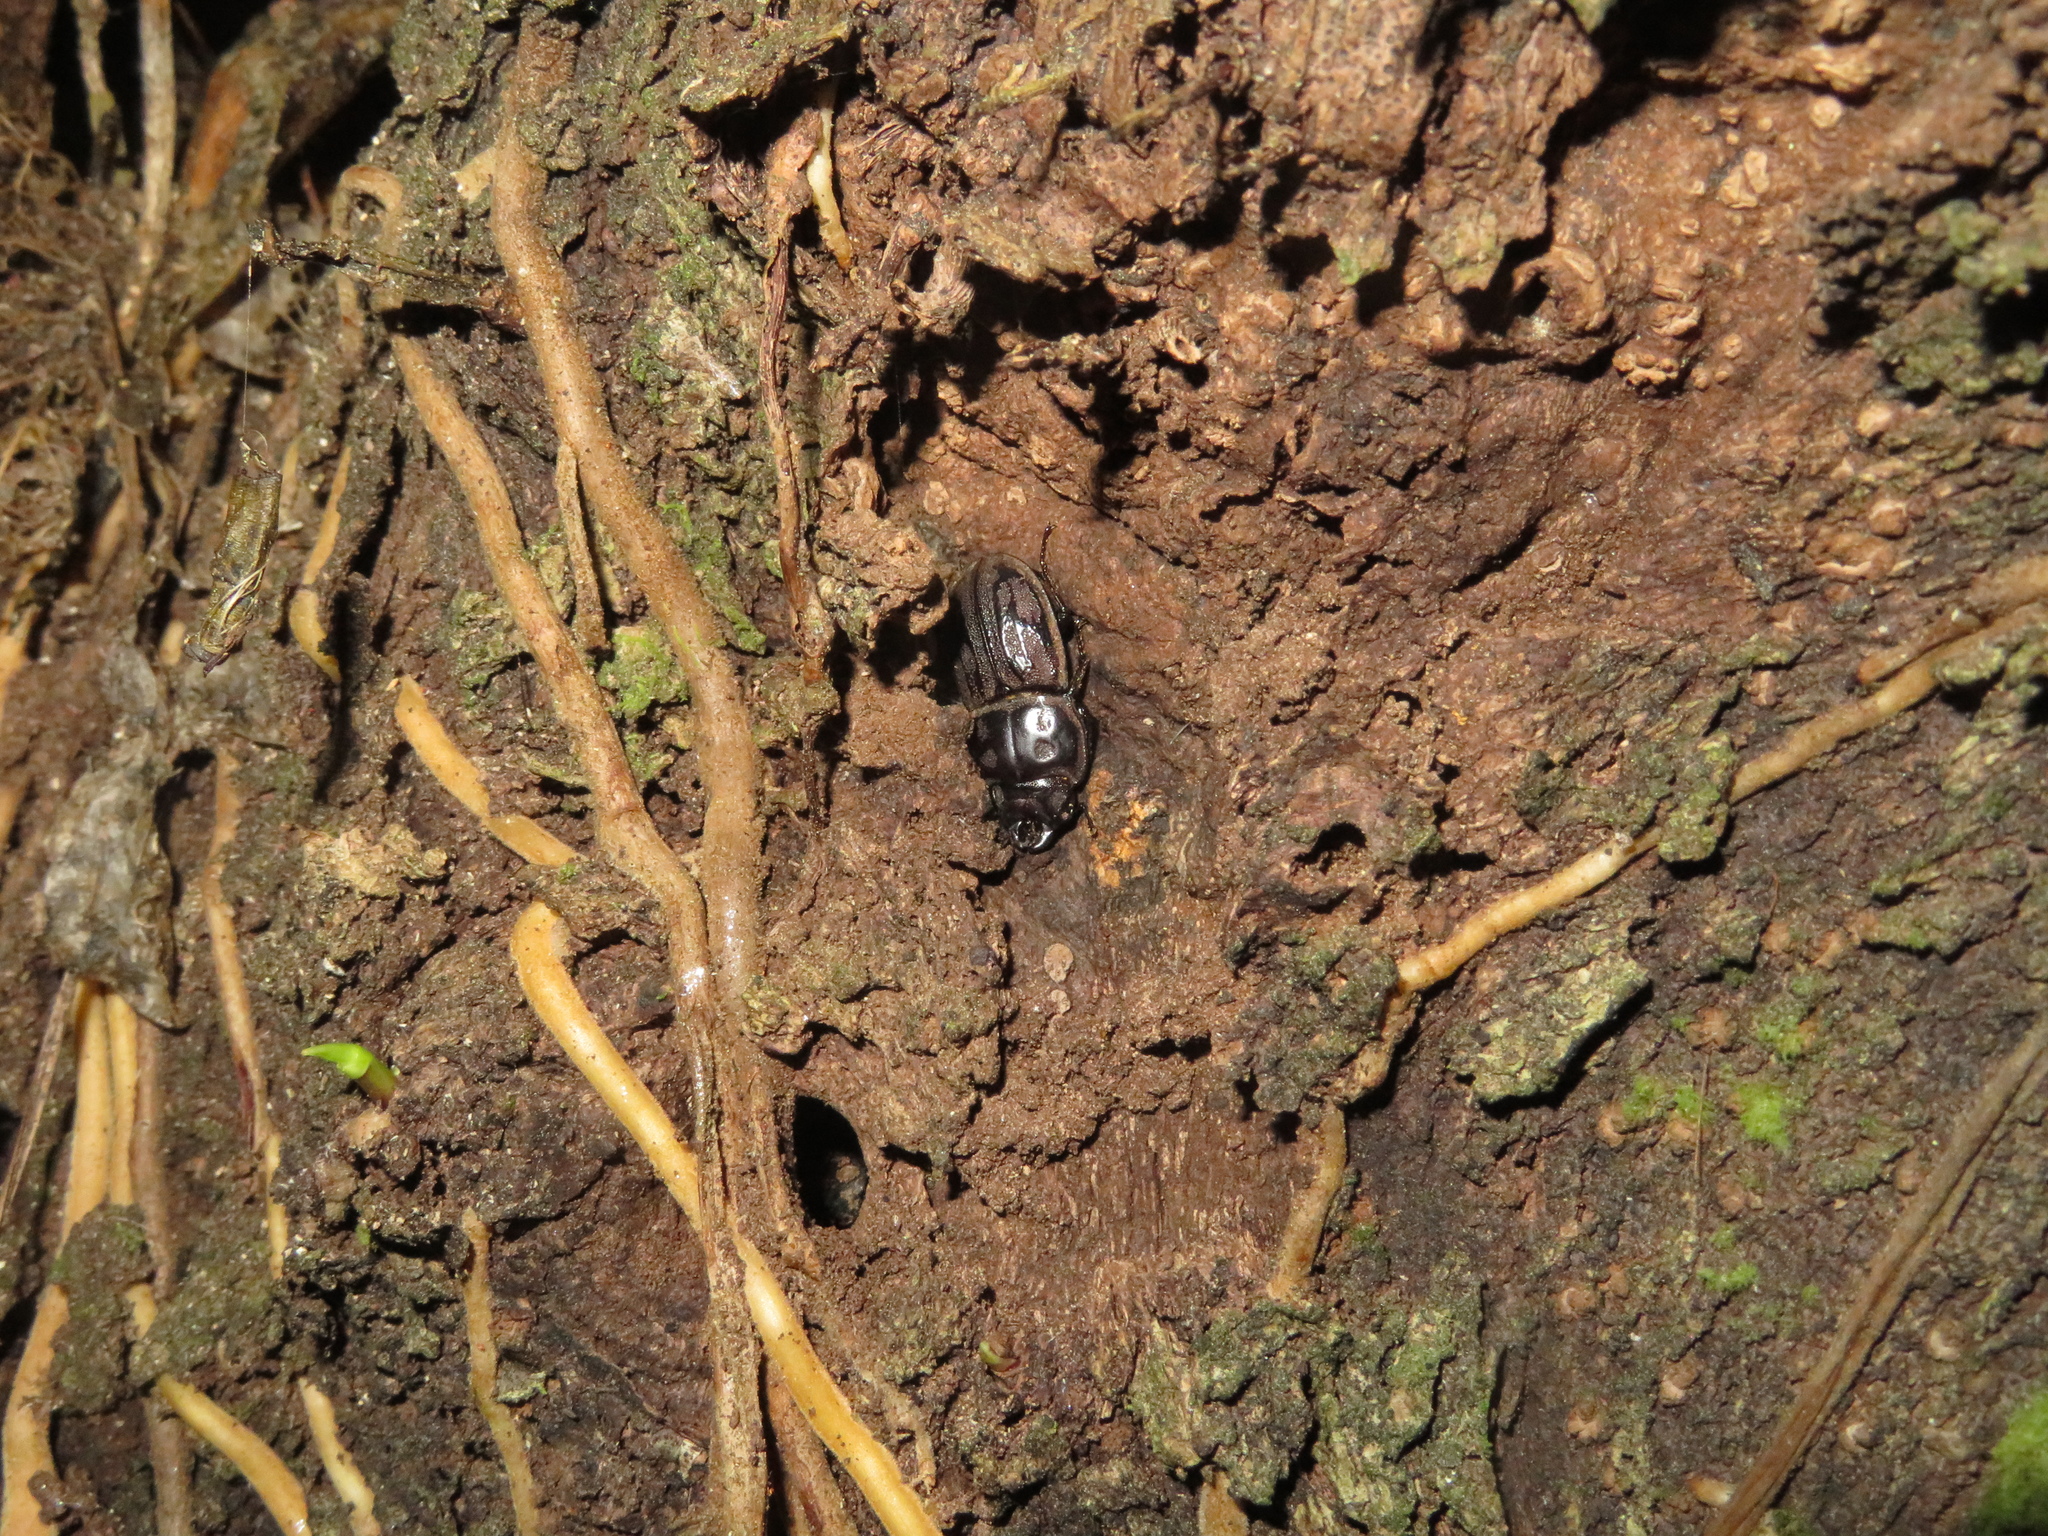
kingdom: Animalia
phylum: Arthropoda
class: Insecta
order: Coleoptera
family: Lucanidae
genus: Paralissotes
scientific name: Paralissotes reticulatus
